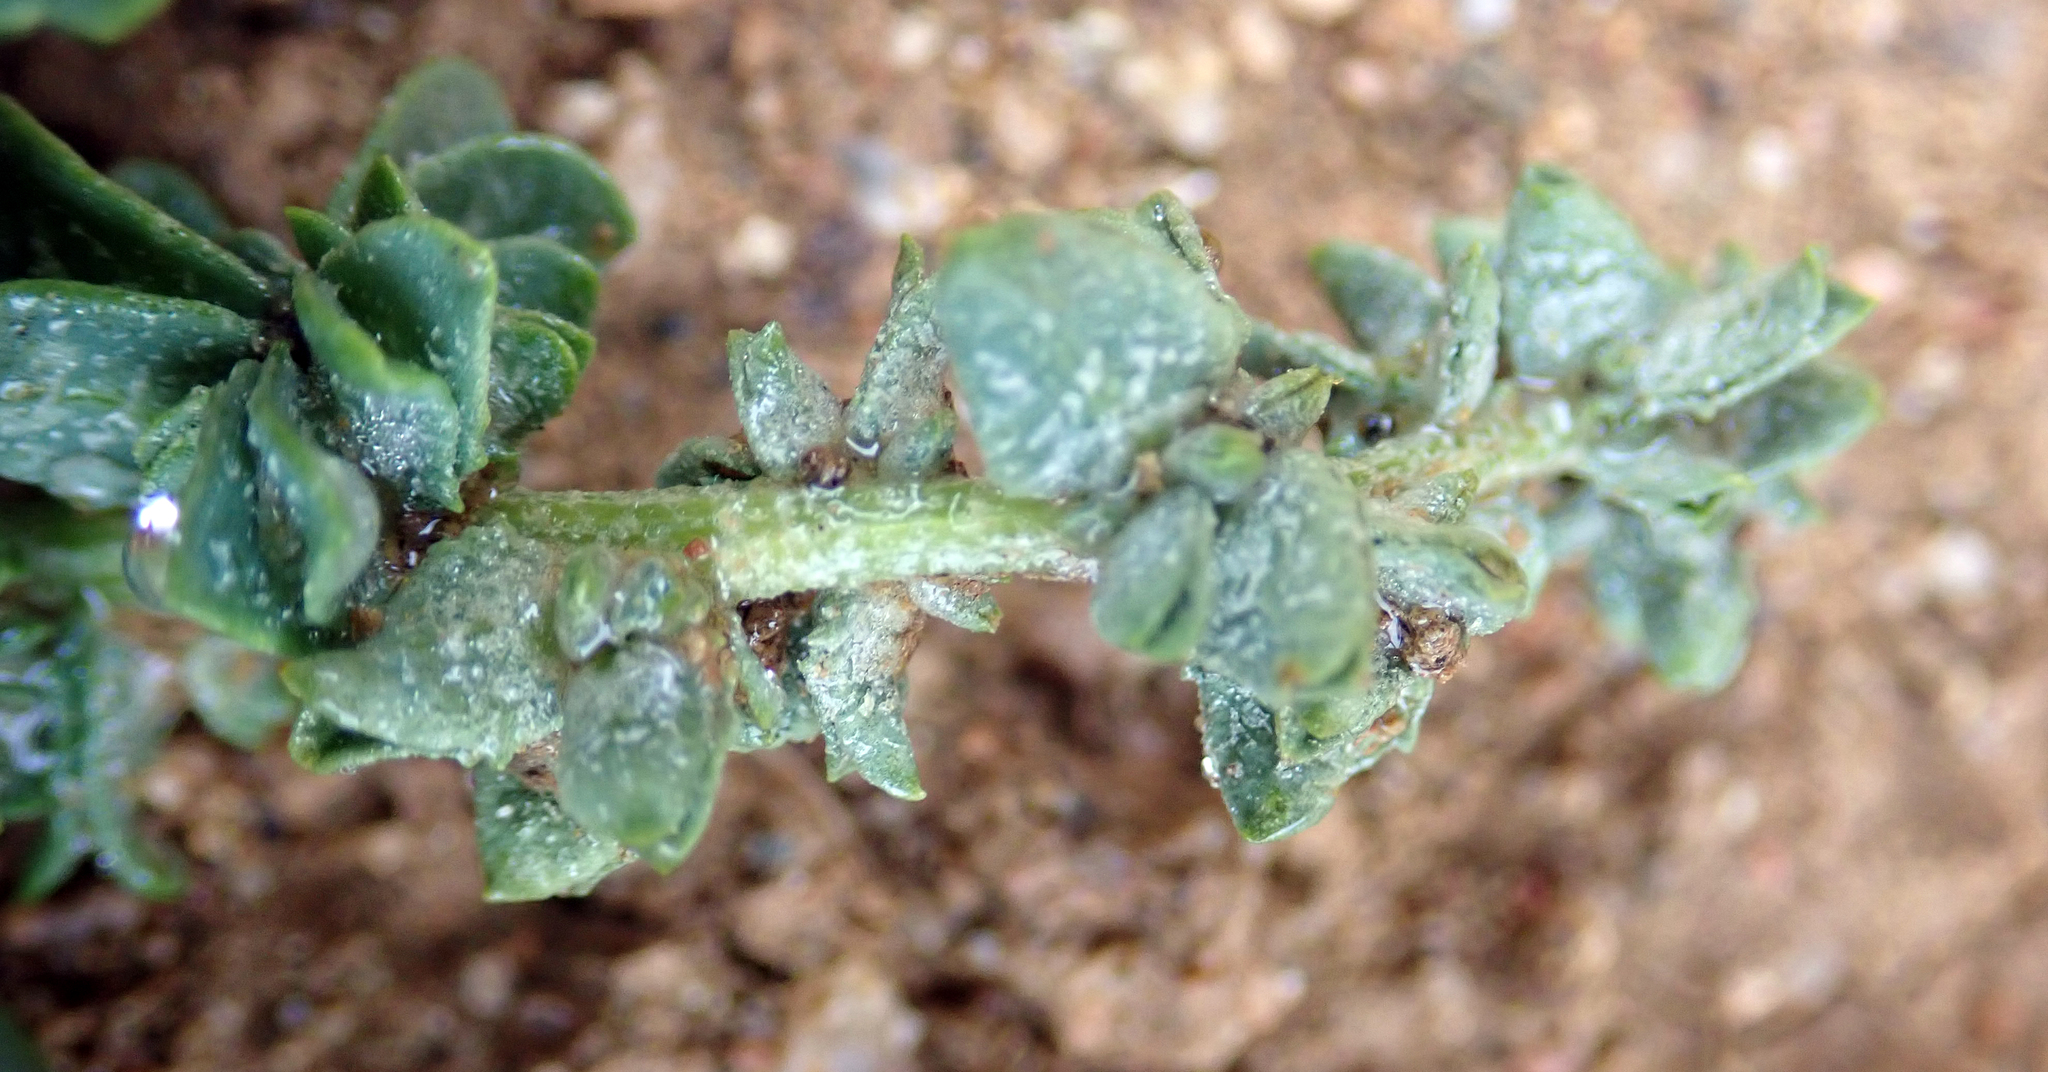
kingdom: Plantae
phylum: Tracheophyta
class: Magnoliopsida
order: Caryophyllales
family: Amaranthaceae
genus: Atriplex
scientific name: Atriplex australasica
